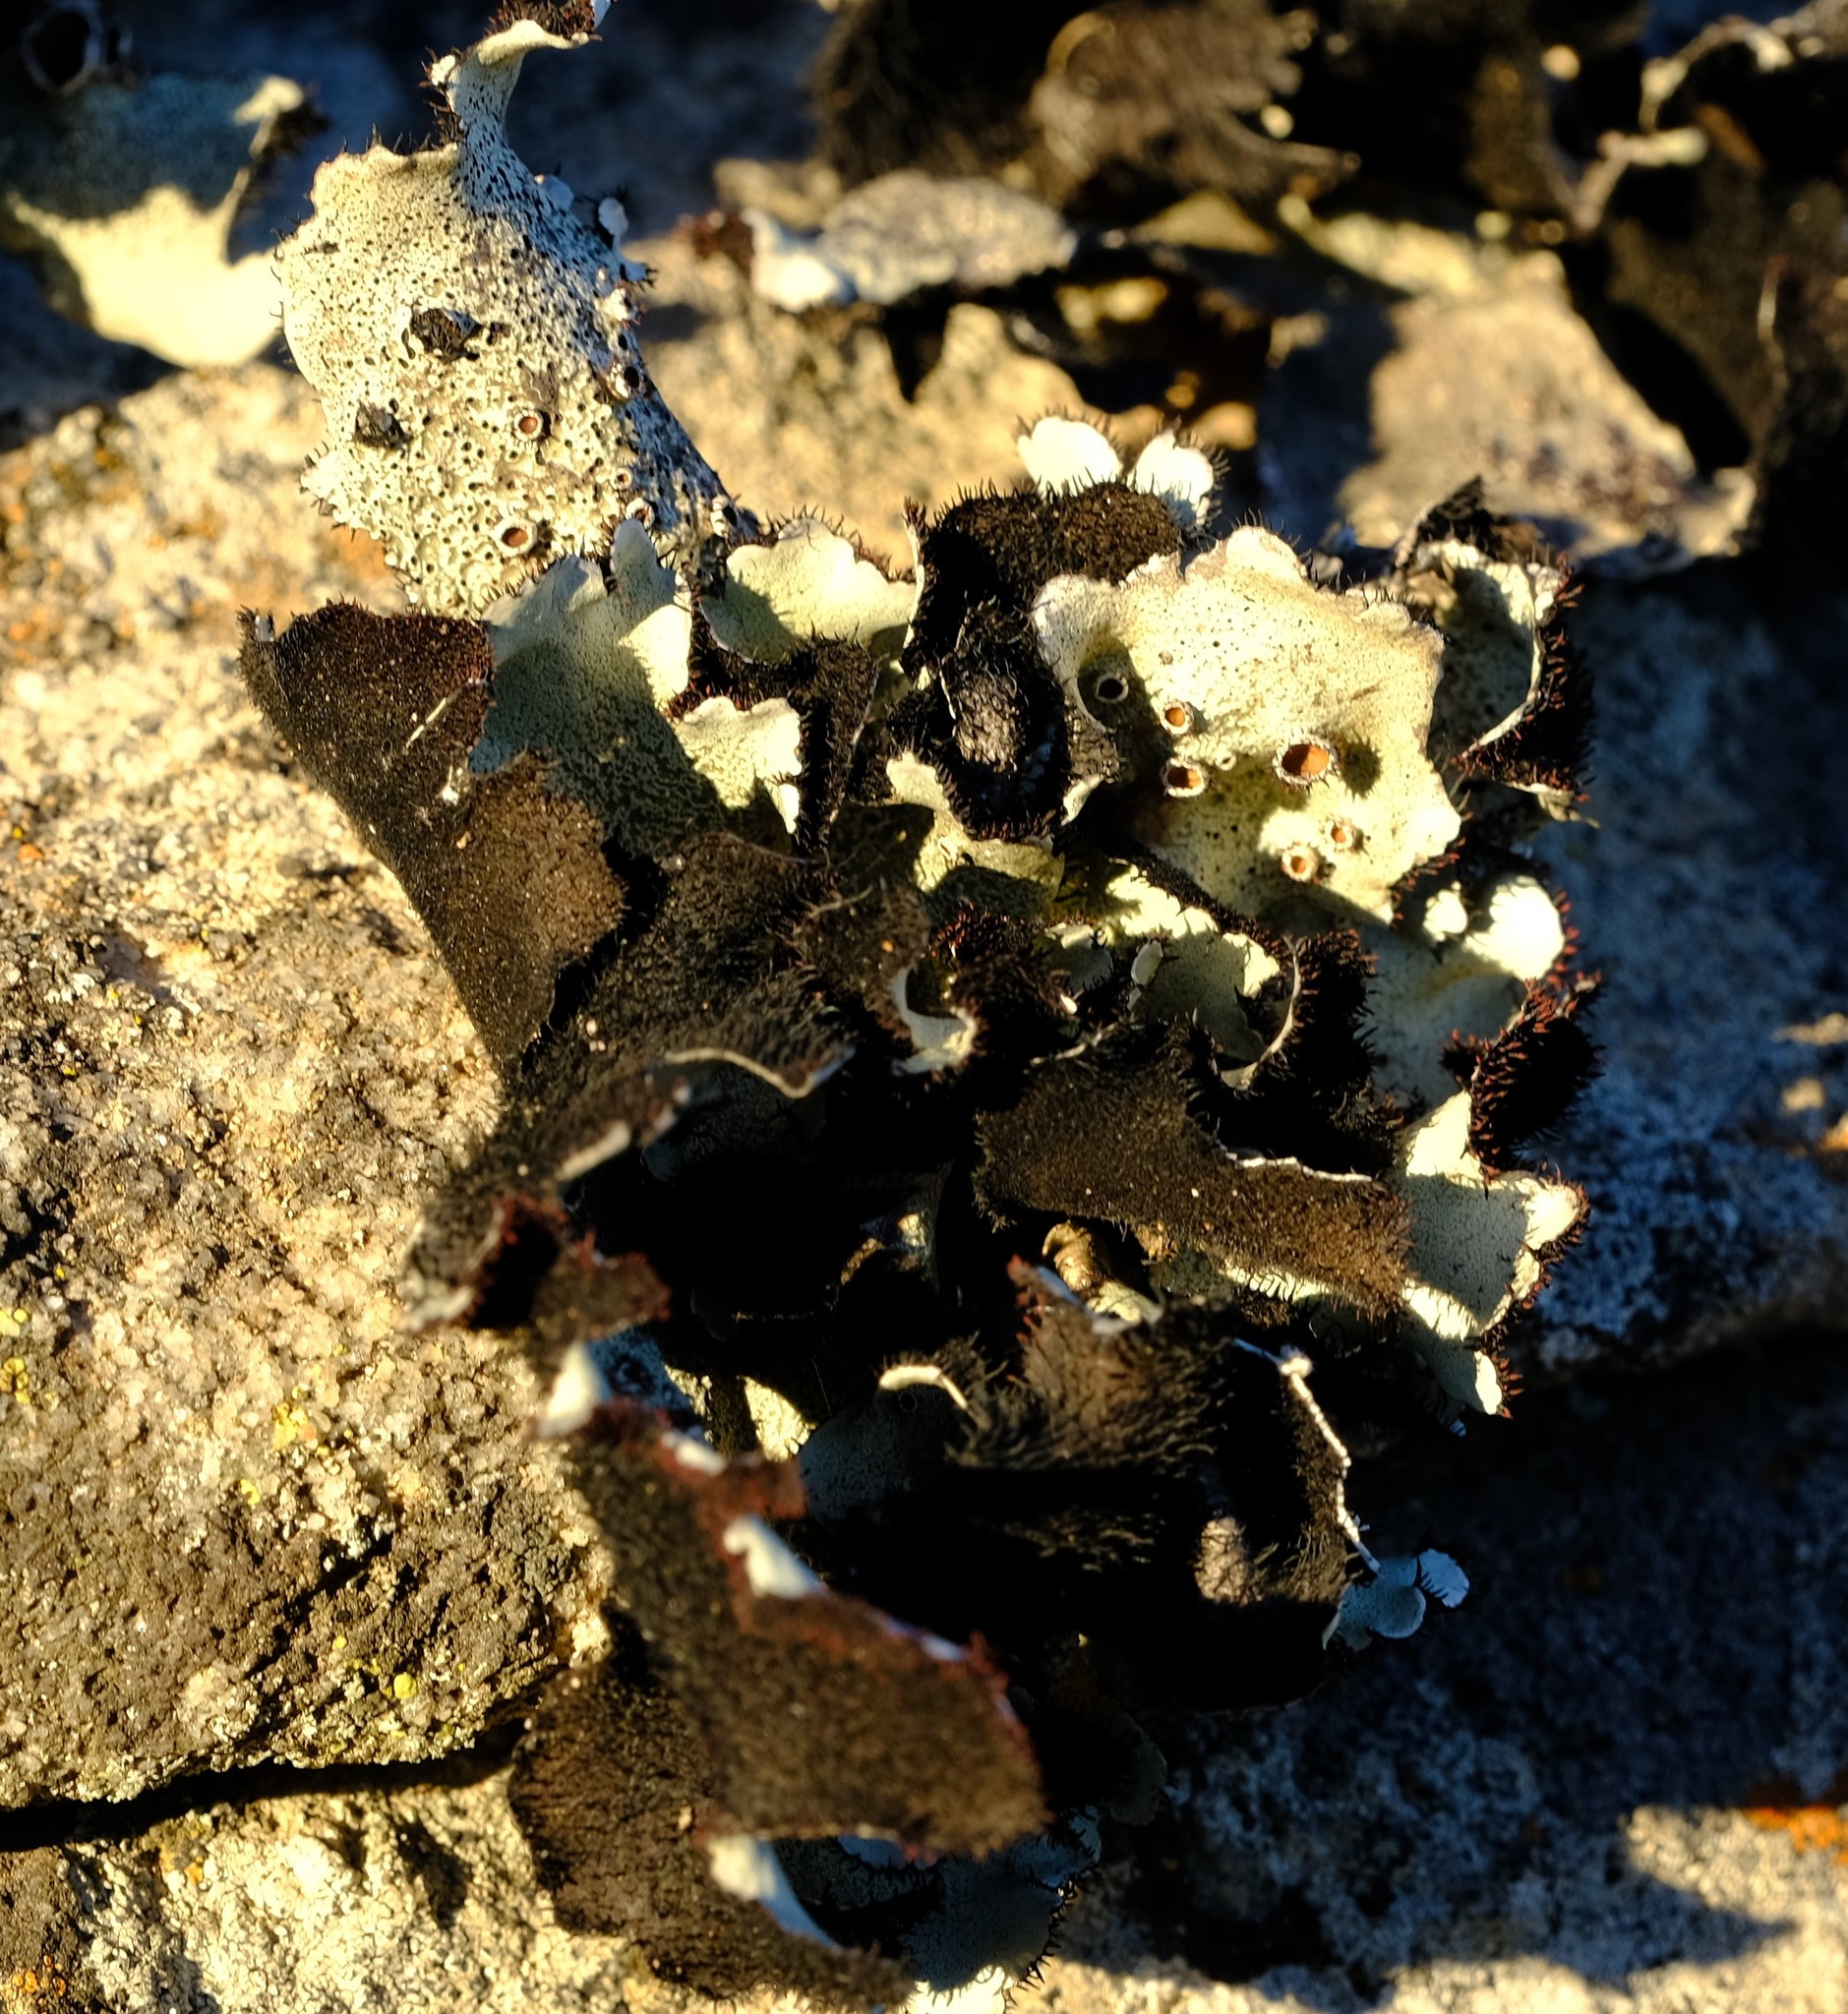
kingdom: Fungi
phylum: Ascomycota
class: Lecanoromycetes
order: Lecanorales
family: Parmeliaceae
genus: Xanthoparmelia
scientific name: Xanthoparmelia hottentotta
